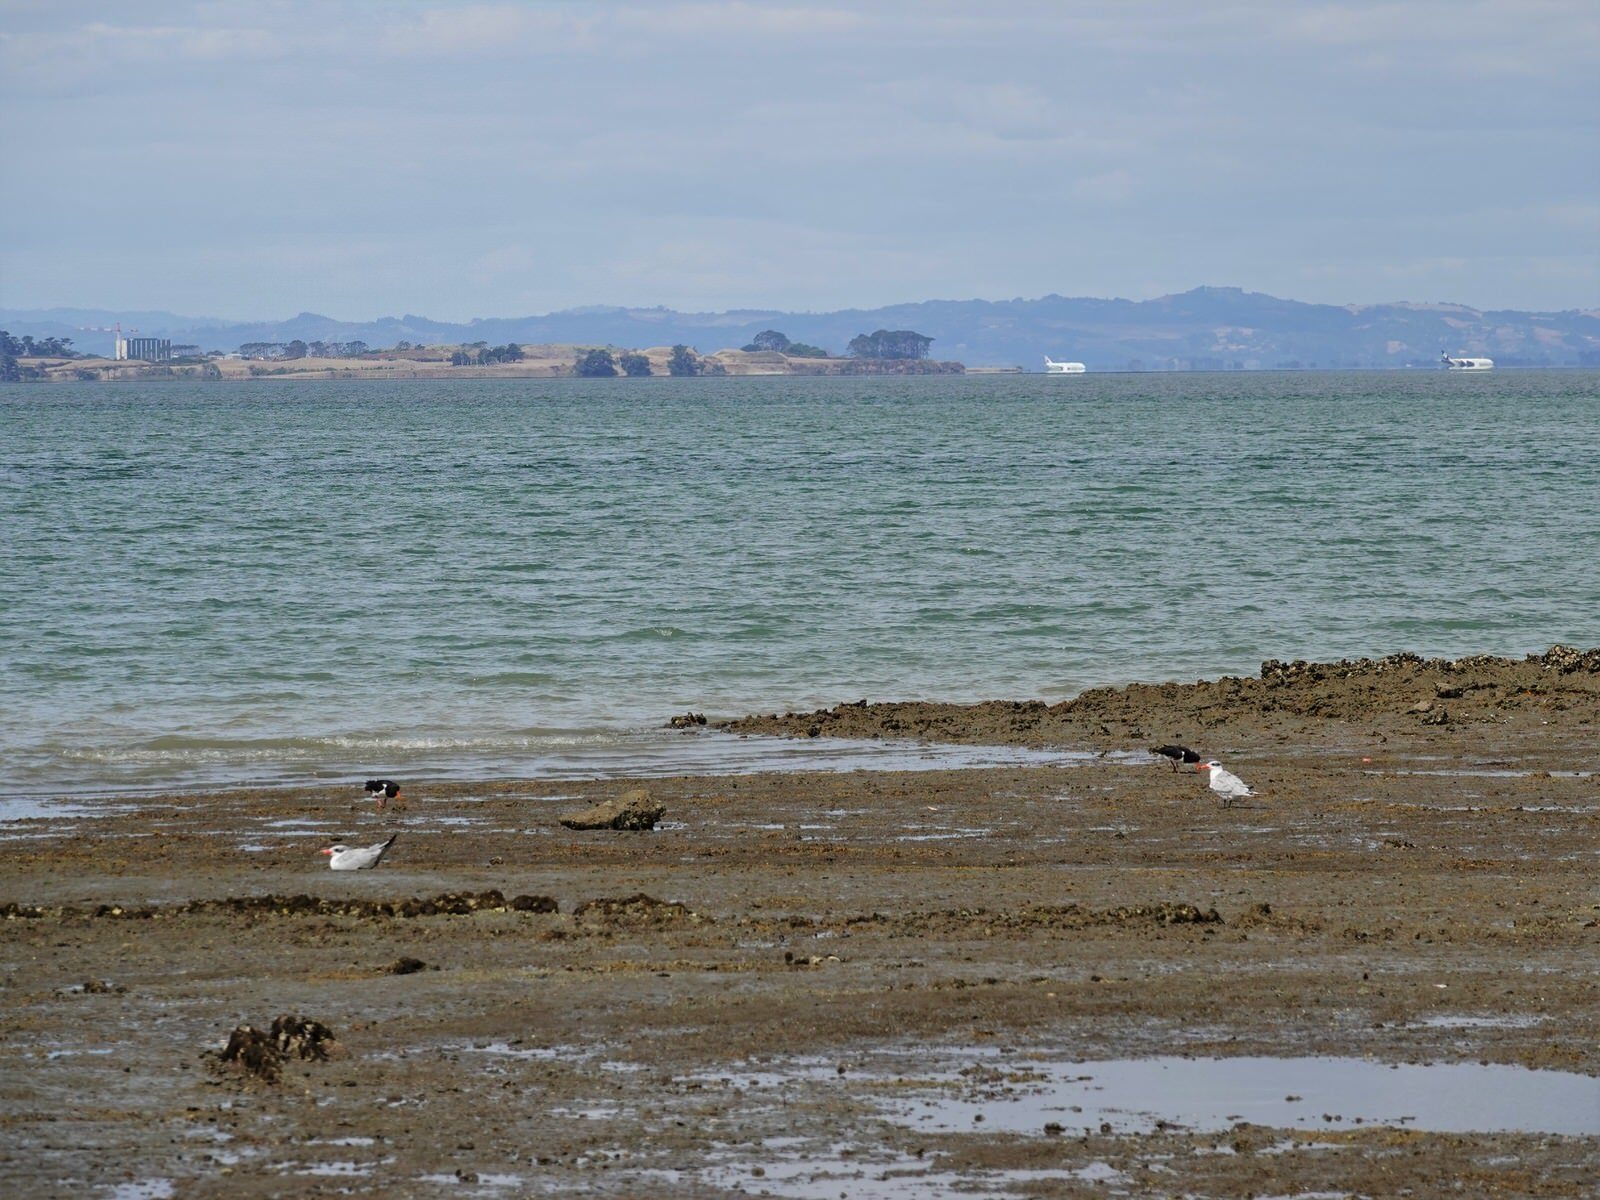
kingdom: Animalia
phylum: Chordata
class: Aves
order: Charadriiformes
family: Laridae
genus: Hydroprogne
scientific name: Hydroprogne caspia
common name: Caspian tern
